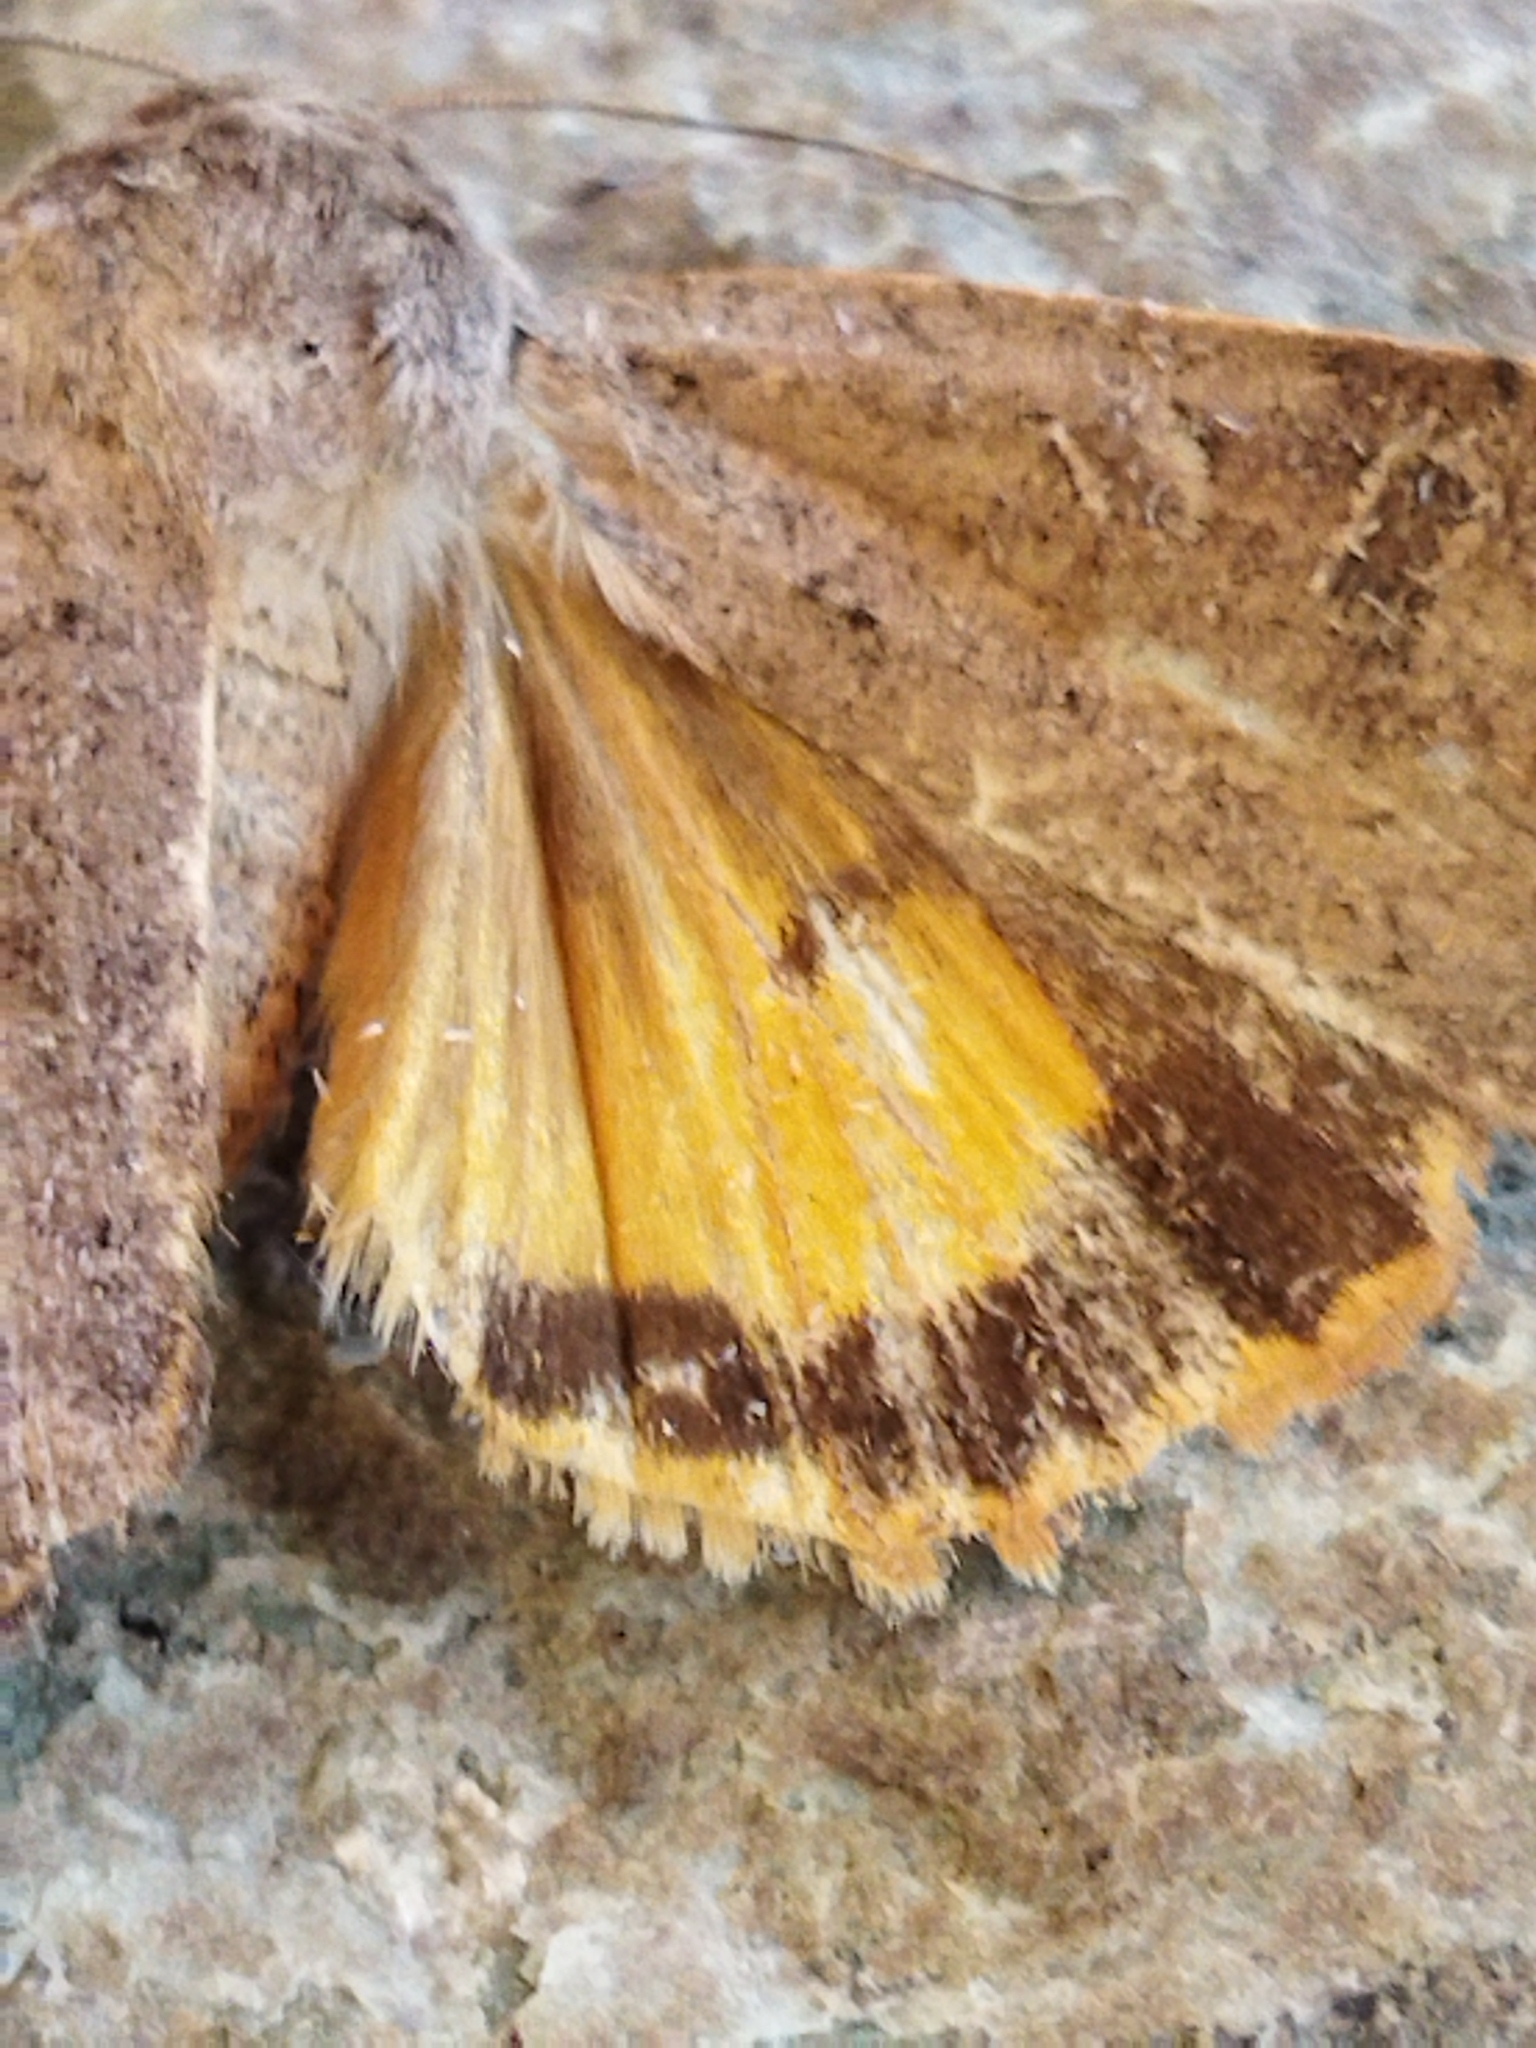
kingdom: Animalia
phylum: Arthropoda
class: Insecta
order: Lepidoptera
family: Noctuidae
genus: Noctua
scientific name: Noctua comes
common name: Lesser yellow underwing
